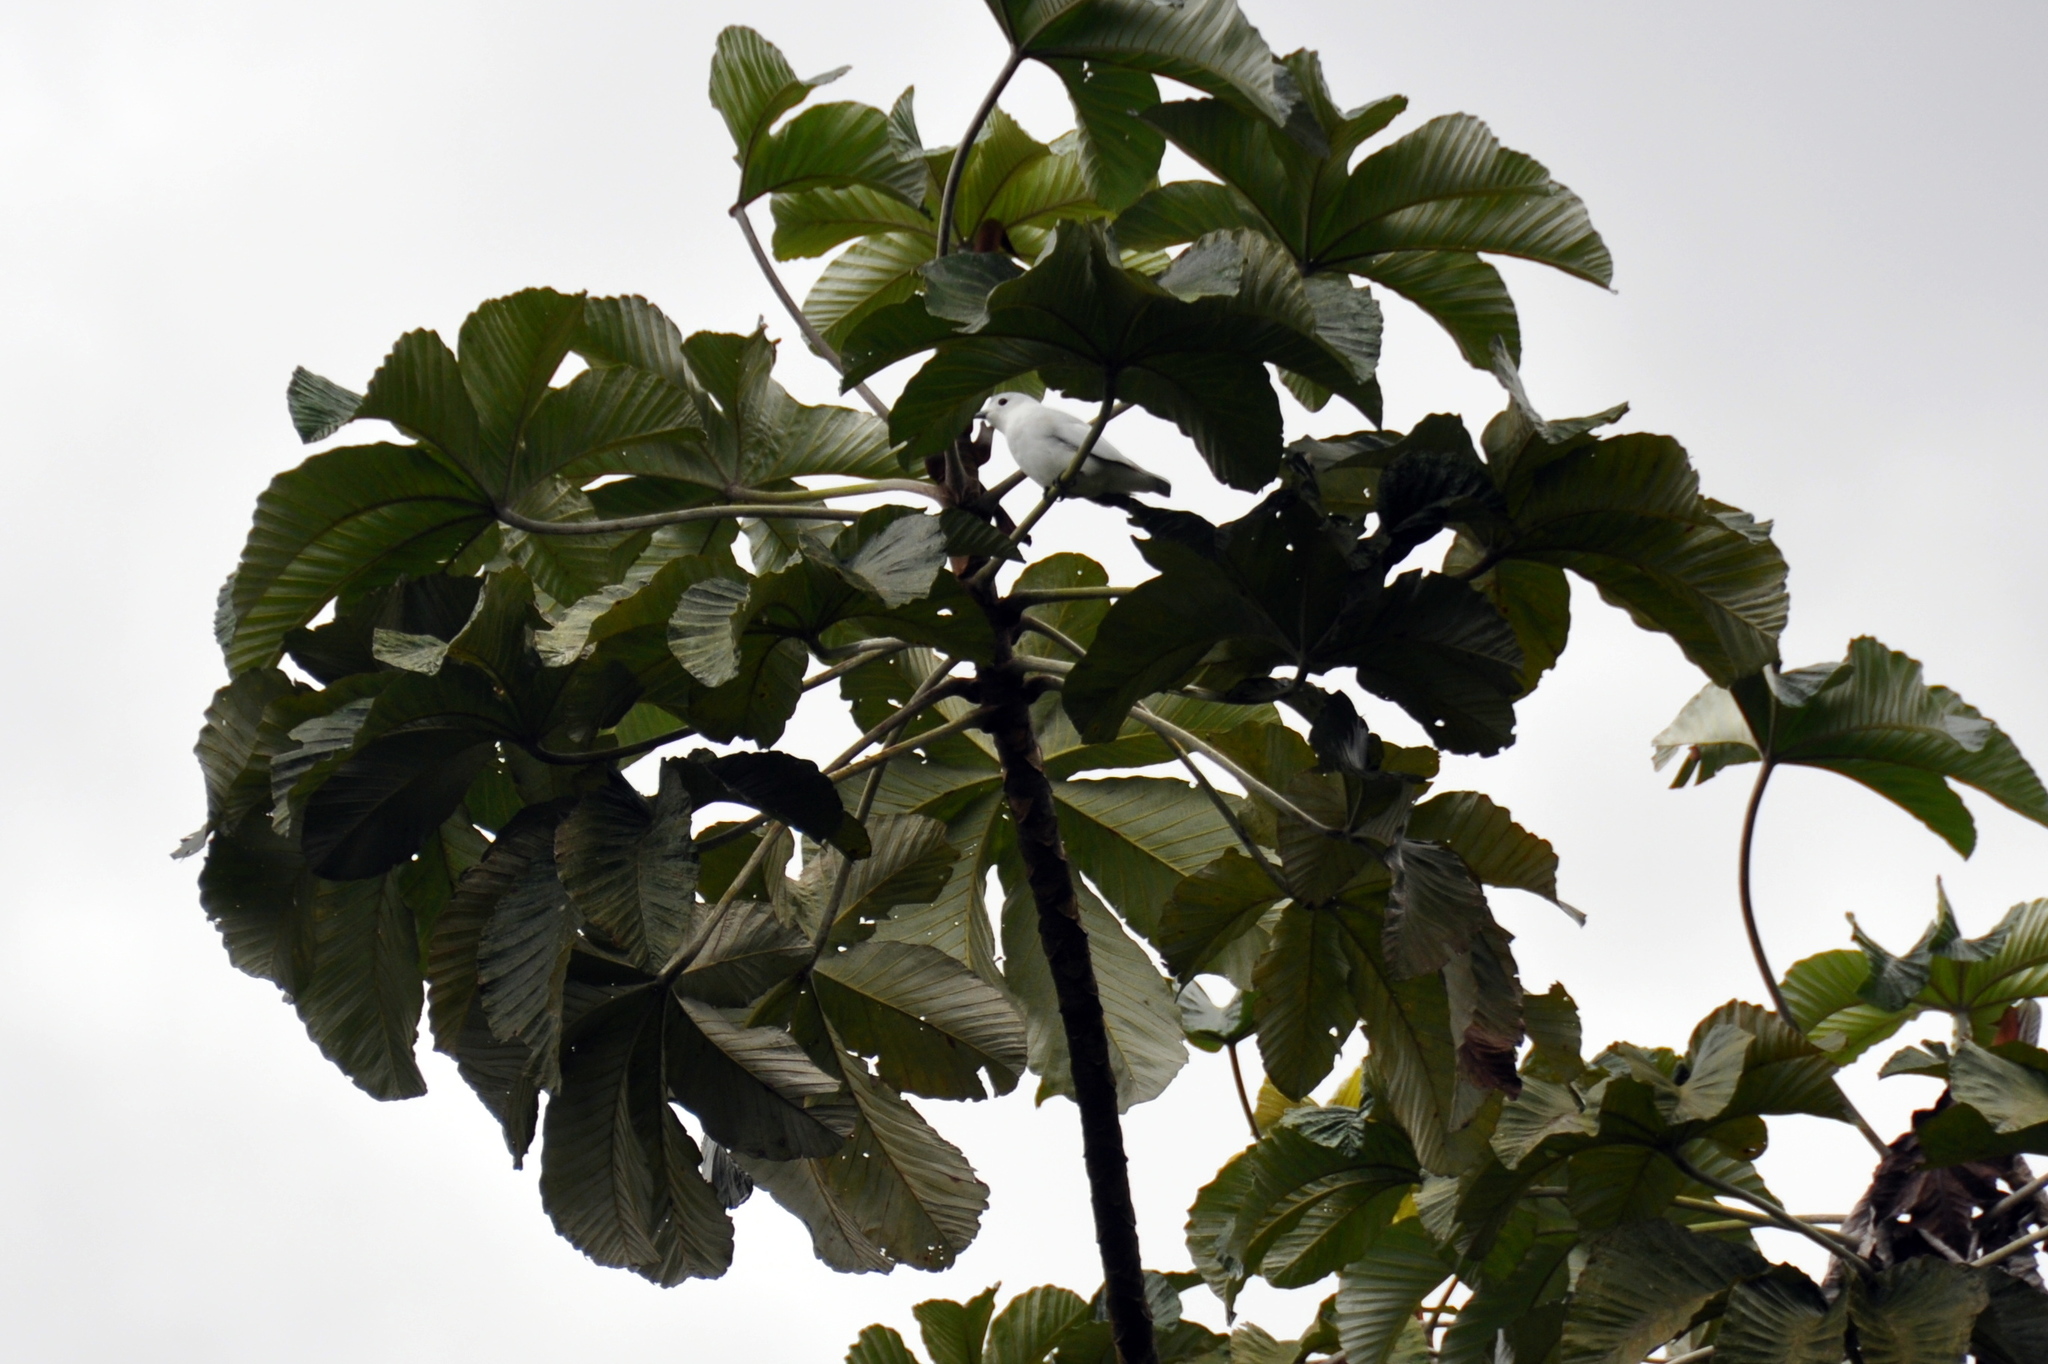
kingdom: Animalia
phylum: Chordata
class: Aves
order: Passeriformes
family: Cotingidae
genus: Carpodectes
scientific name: Carpodectes nitidus
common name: Snowy cotinga
